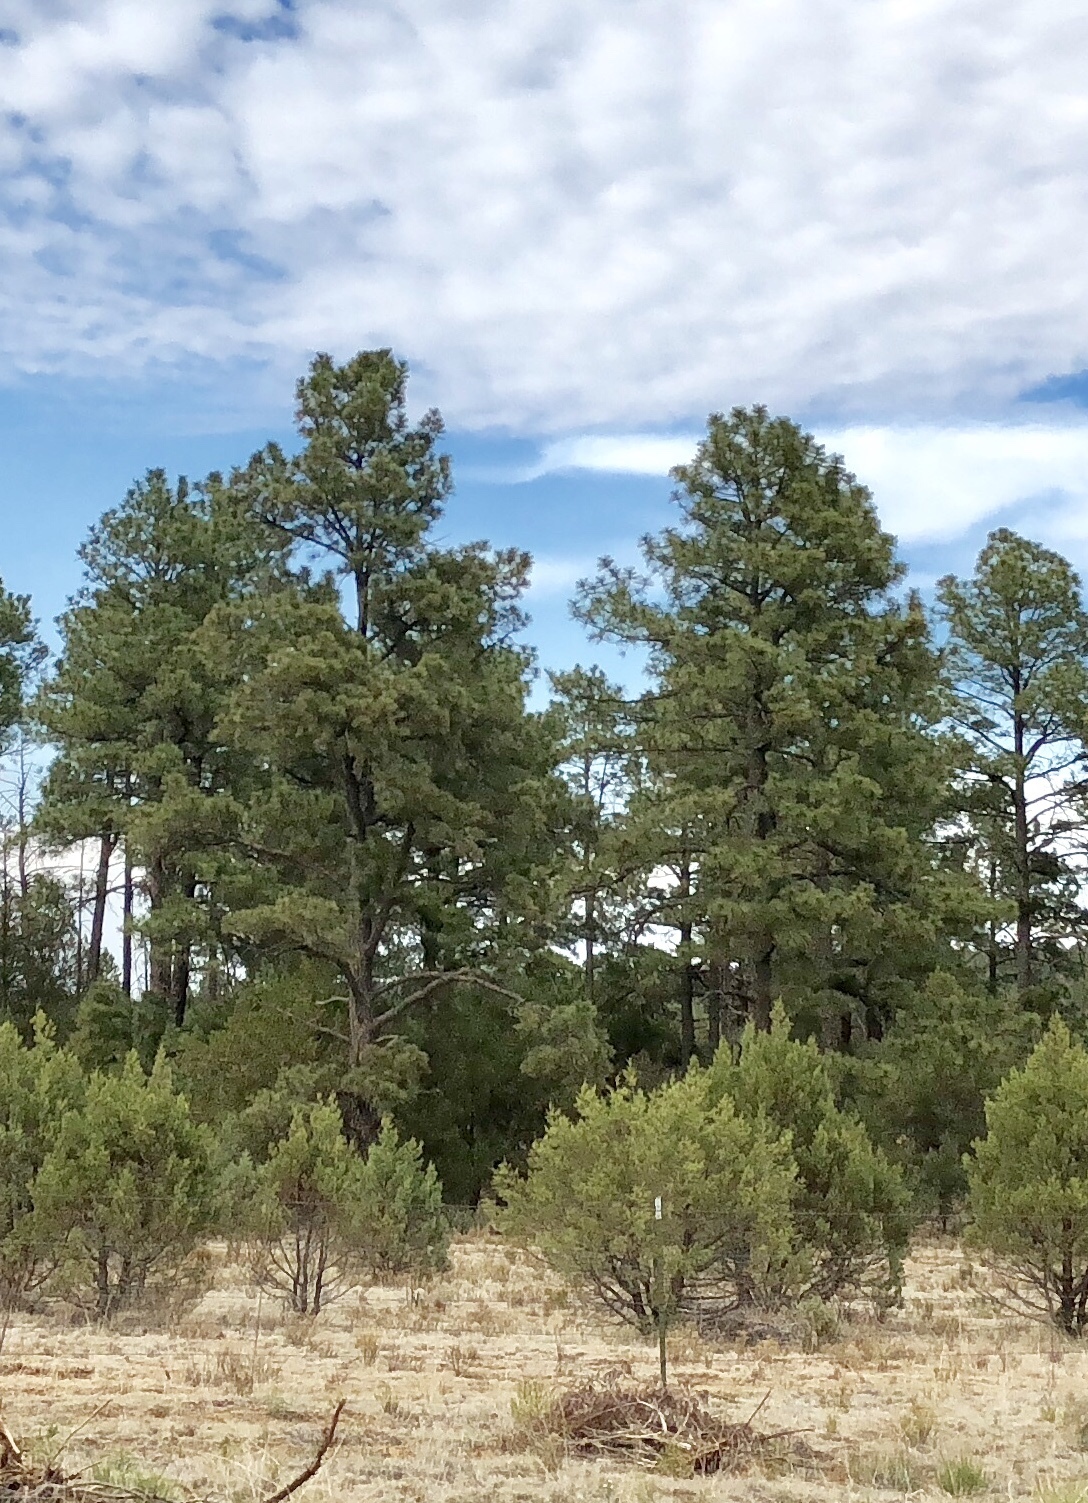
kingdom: Plantae
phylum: Tracheophyta
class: Pinopsida
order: Pinales
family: Pinaceae
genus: Pinus
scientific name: Pinus ponderosa
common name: Western yellow-pine
